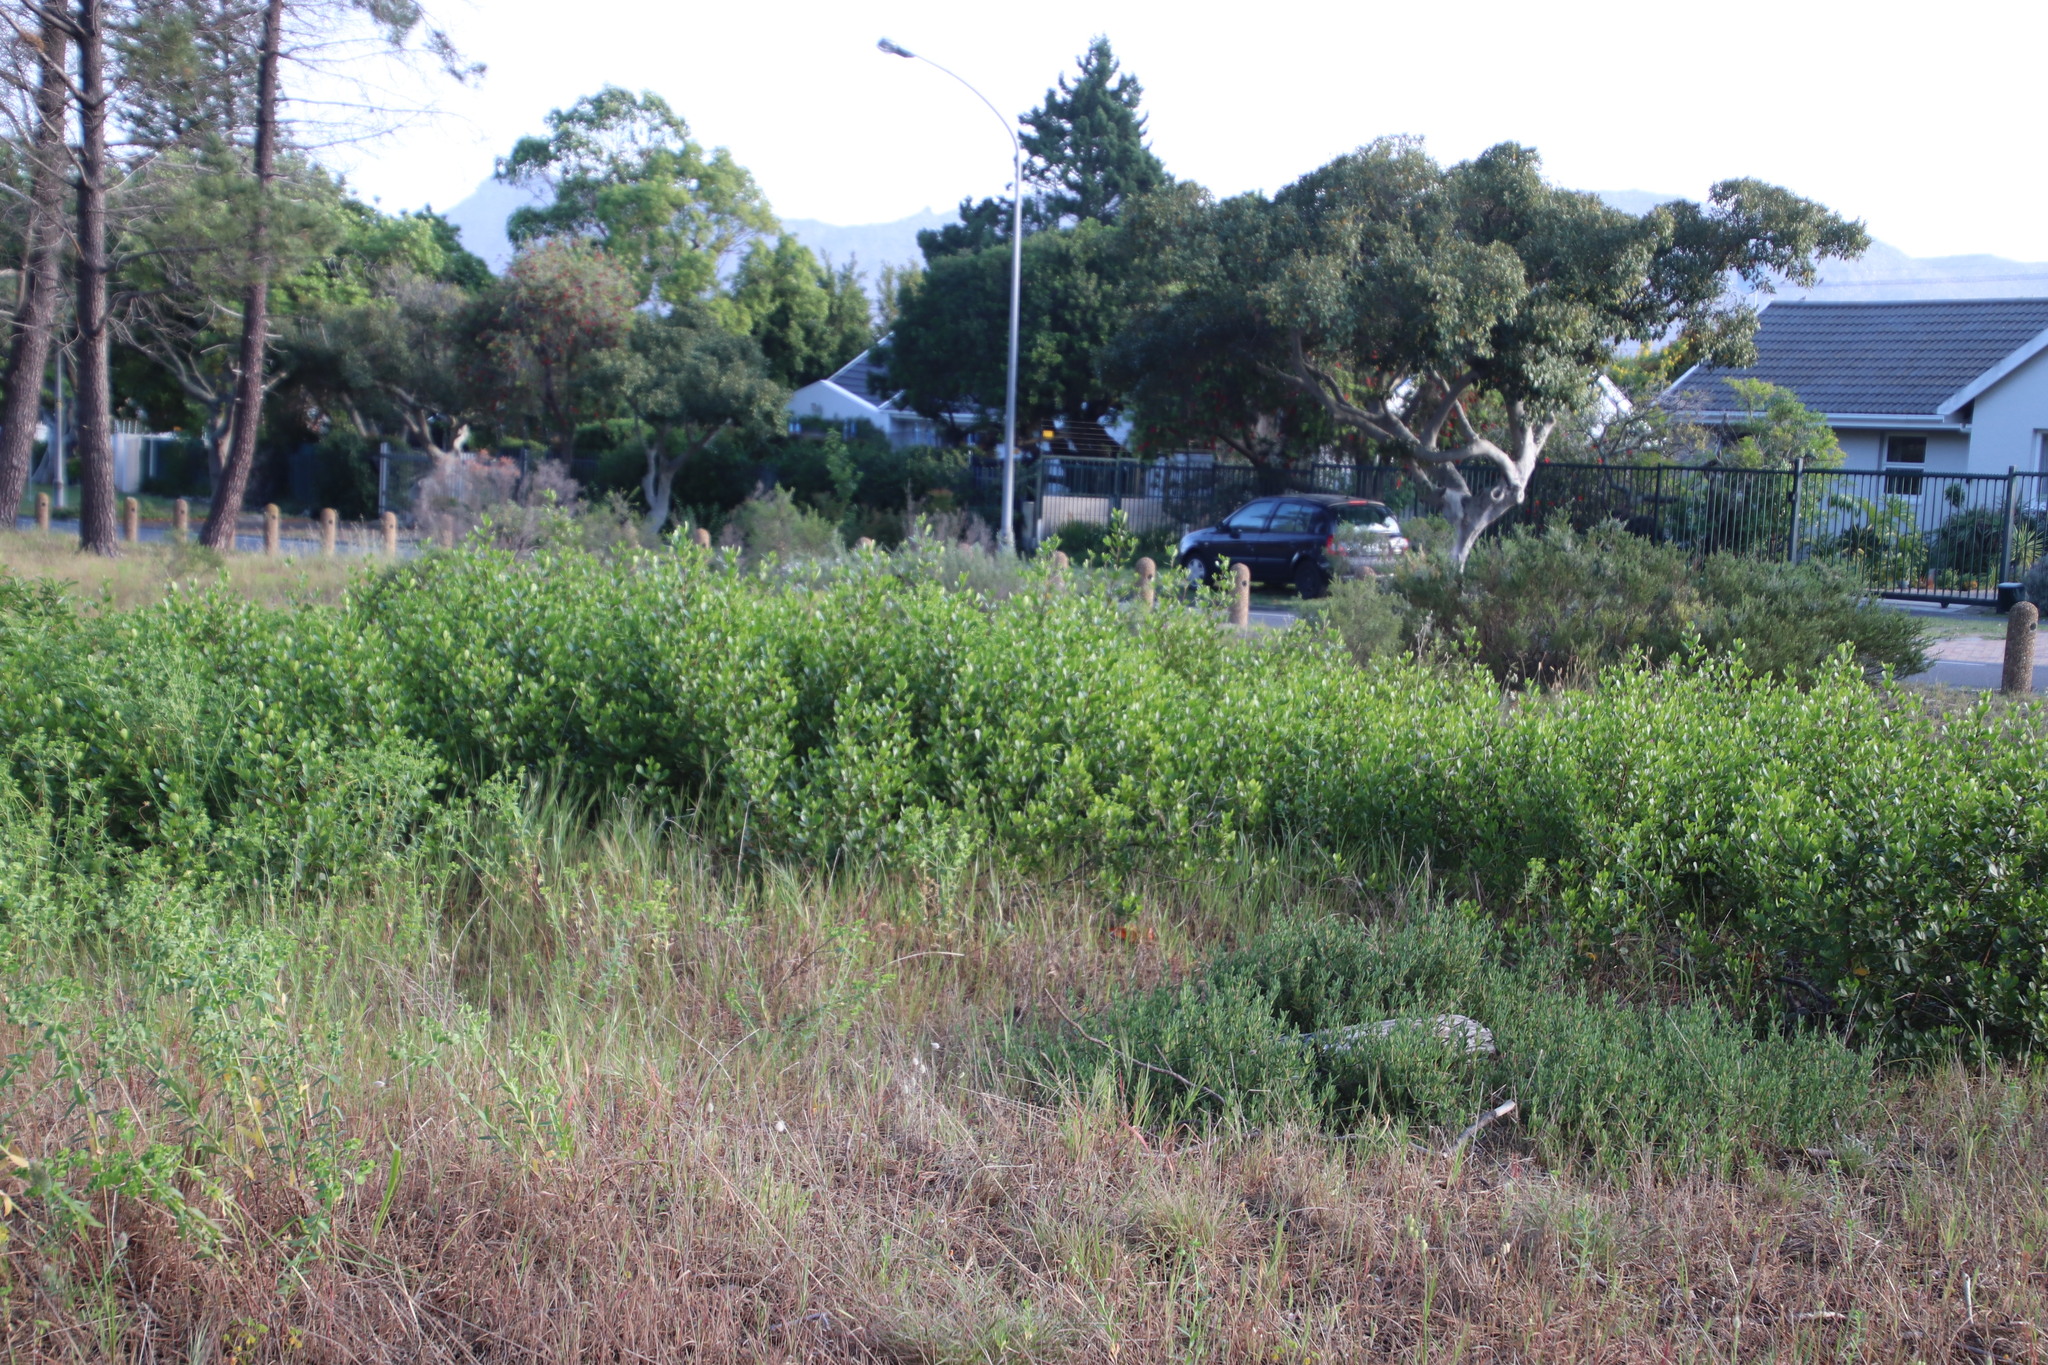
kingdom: Plantae
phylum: Tracheophyta
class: Magnoliopsida
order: Sapindales
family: Anacardiaceae
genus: Searsia
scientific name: Searsia lucida
